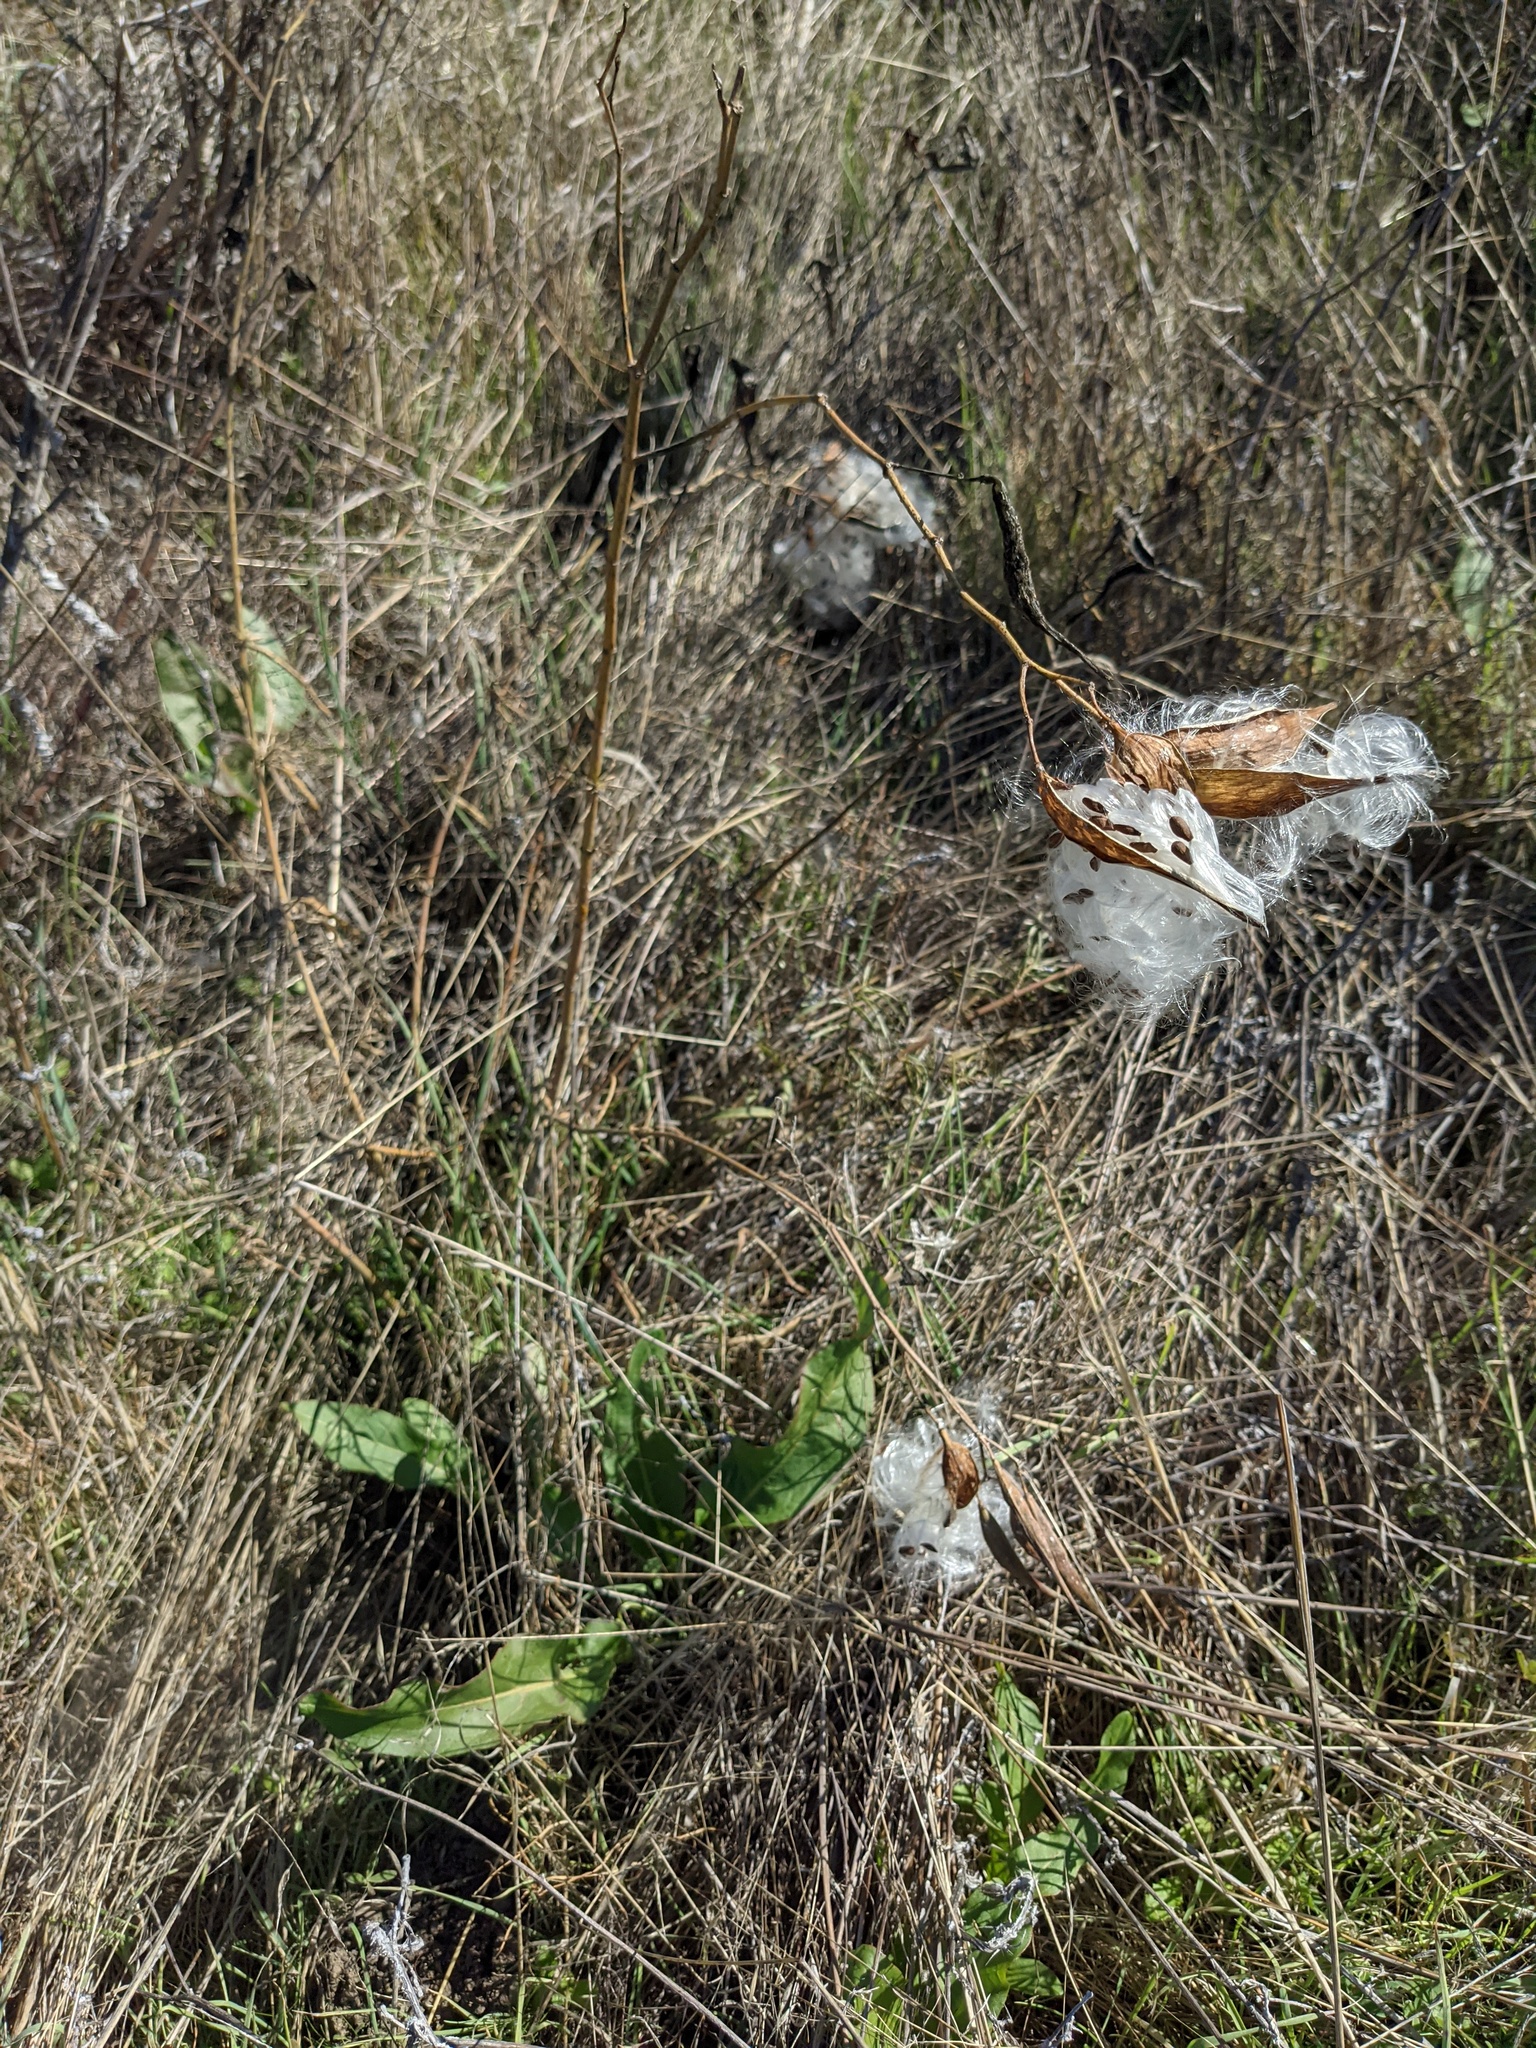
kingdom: Plantae
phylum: Tracheophyta
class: Magnoliopsida
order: Gentianales
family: Apocynaceae
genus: Asclepias
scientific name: Asclepias fascicularis
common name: Mexican milkweed
